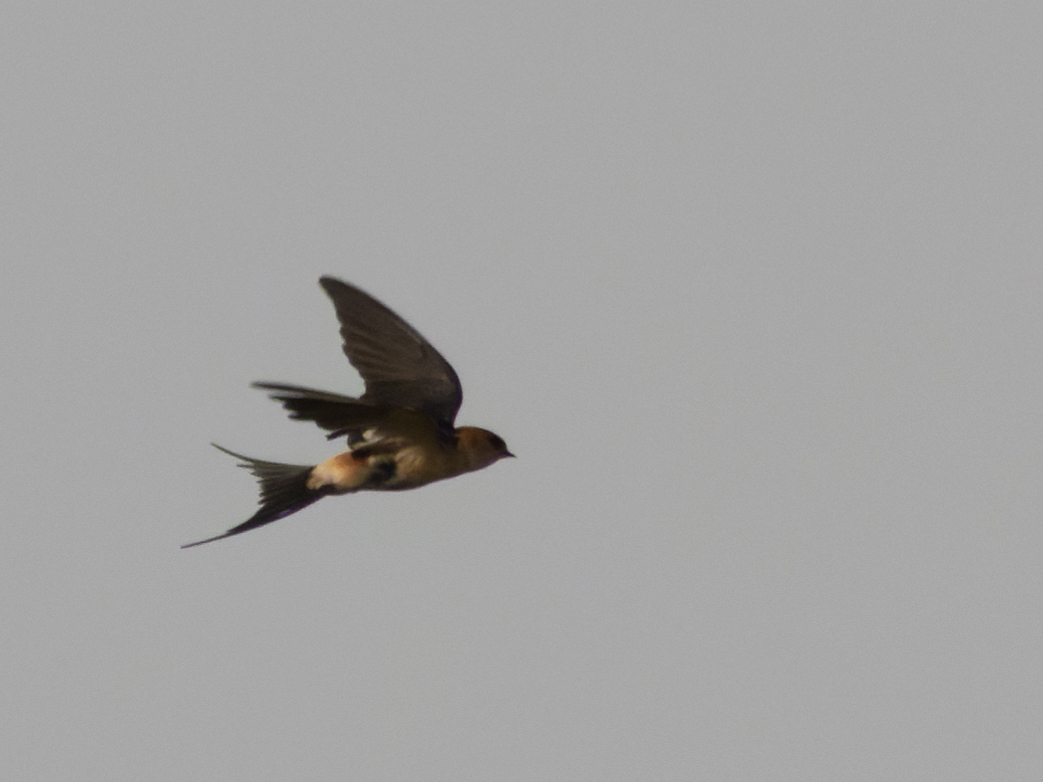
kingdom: Animalia
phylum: Chordata
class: Aves
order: Passeriformes
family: Hirundinidae
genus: Cecropis
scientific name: Cecropis daurica
